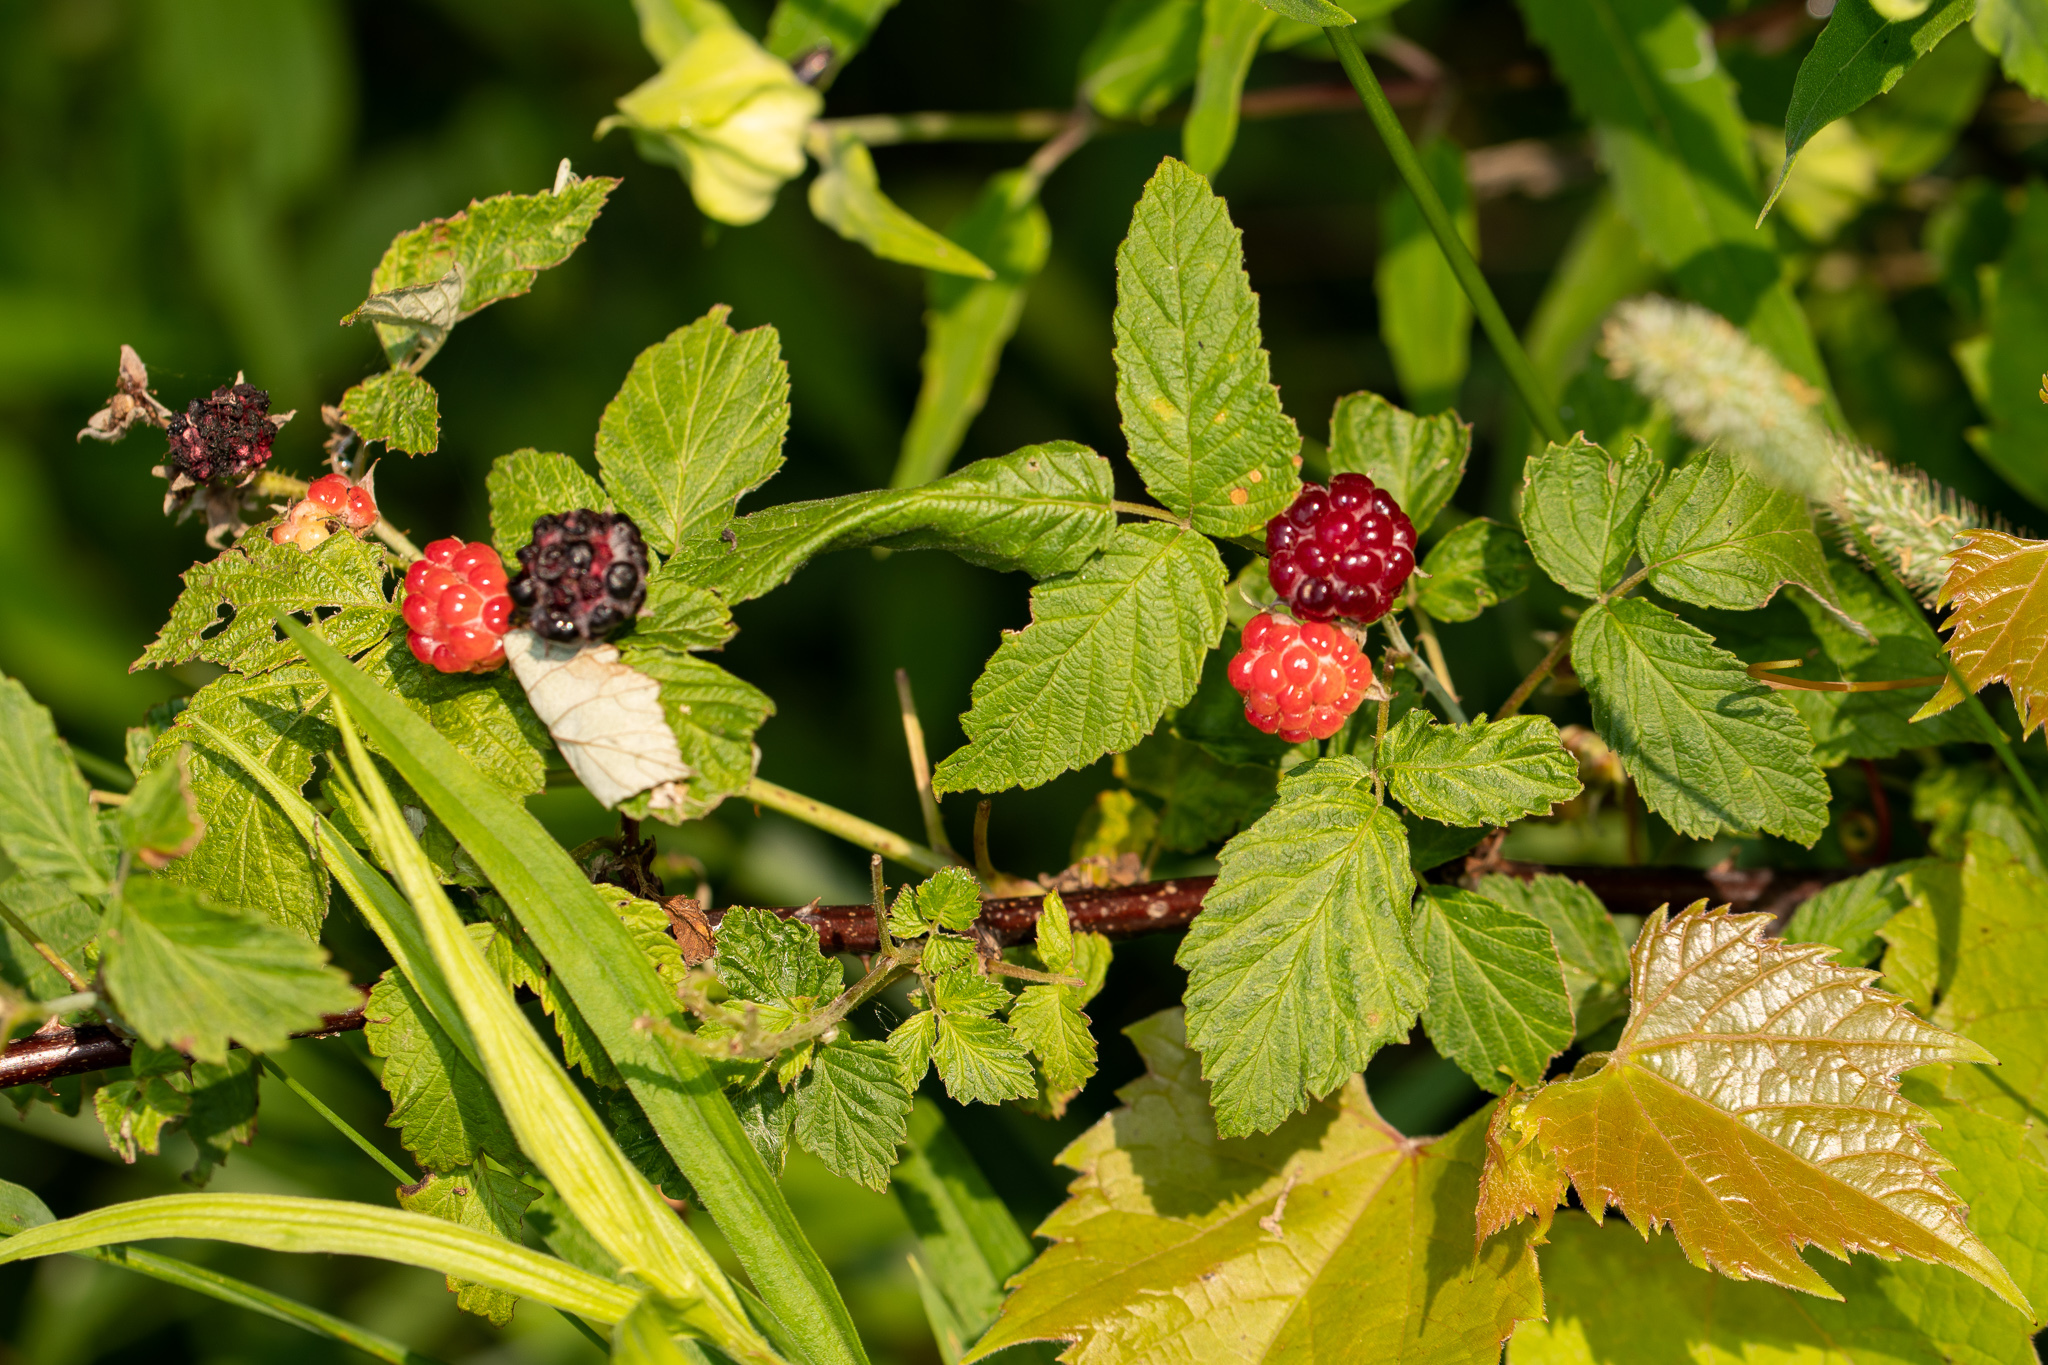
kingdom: Plantae
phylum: Tracheophyta
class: Magnoliopsida
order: Rosales
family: Rosaceae
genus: Rubus
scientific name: Rubus occidentalis
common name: Black raspberry
